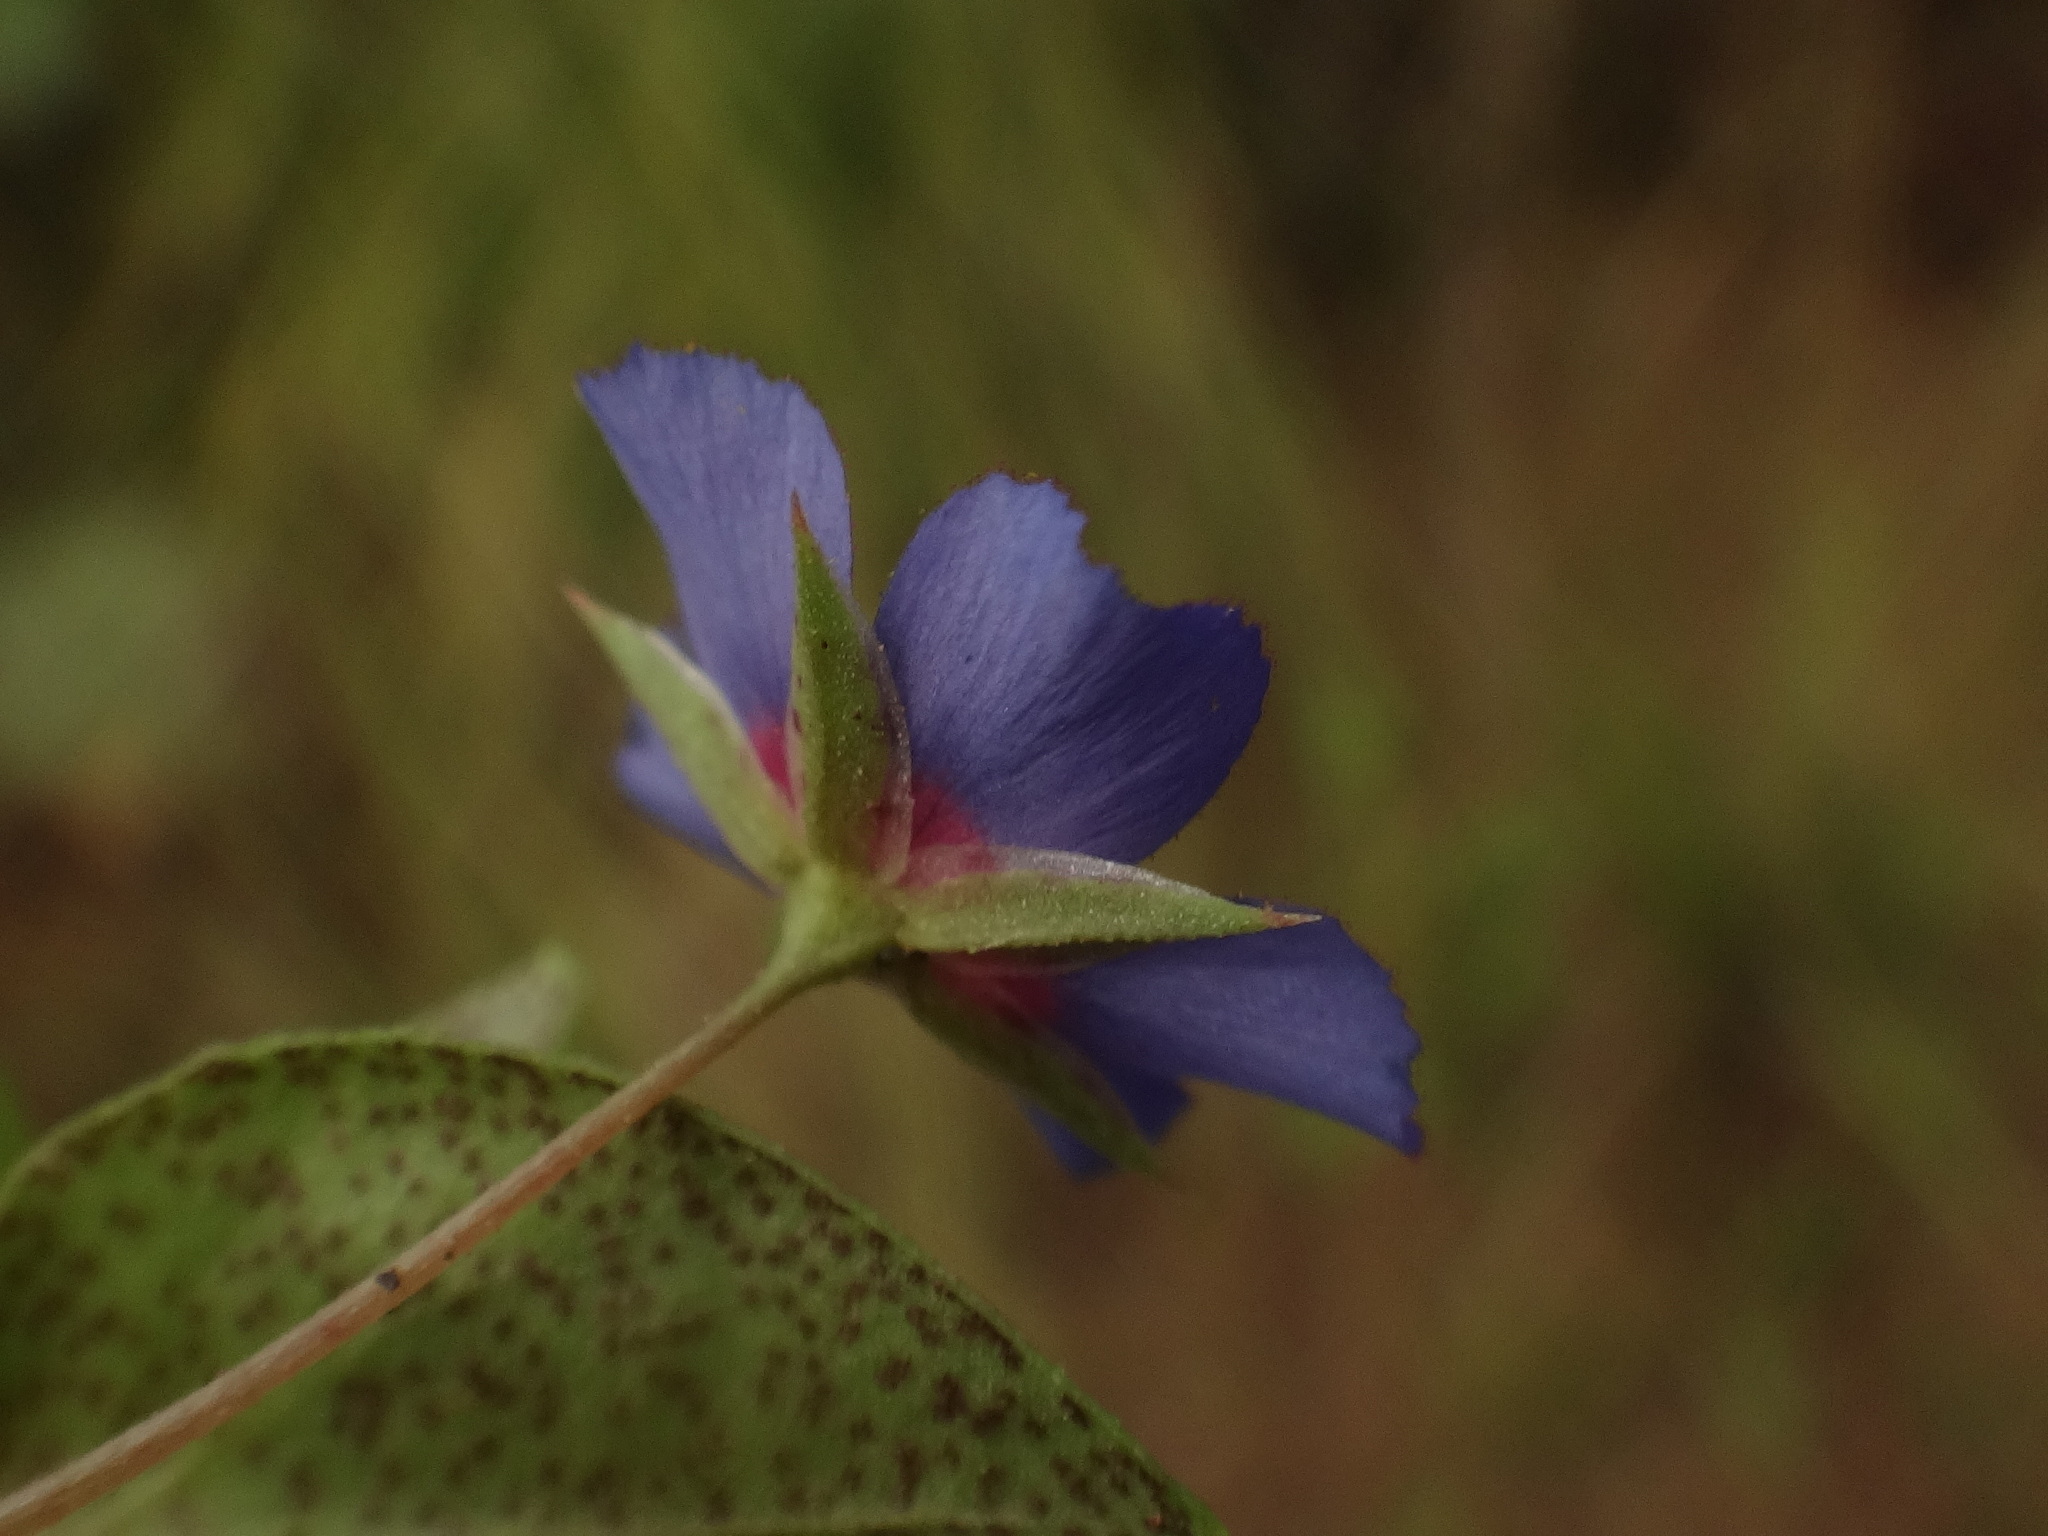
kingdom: Plantae
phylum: Tracheophyta
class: Magnoliopsida
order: Ericales
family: Primulaceae
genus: Lysimachia
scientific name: Lysimachia loeflingii
